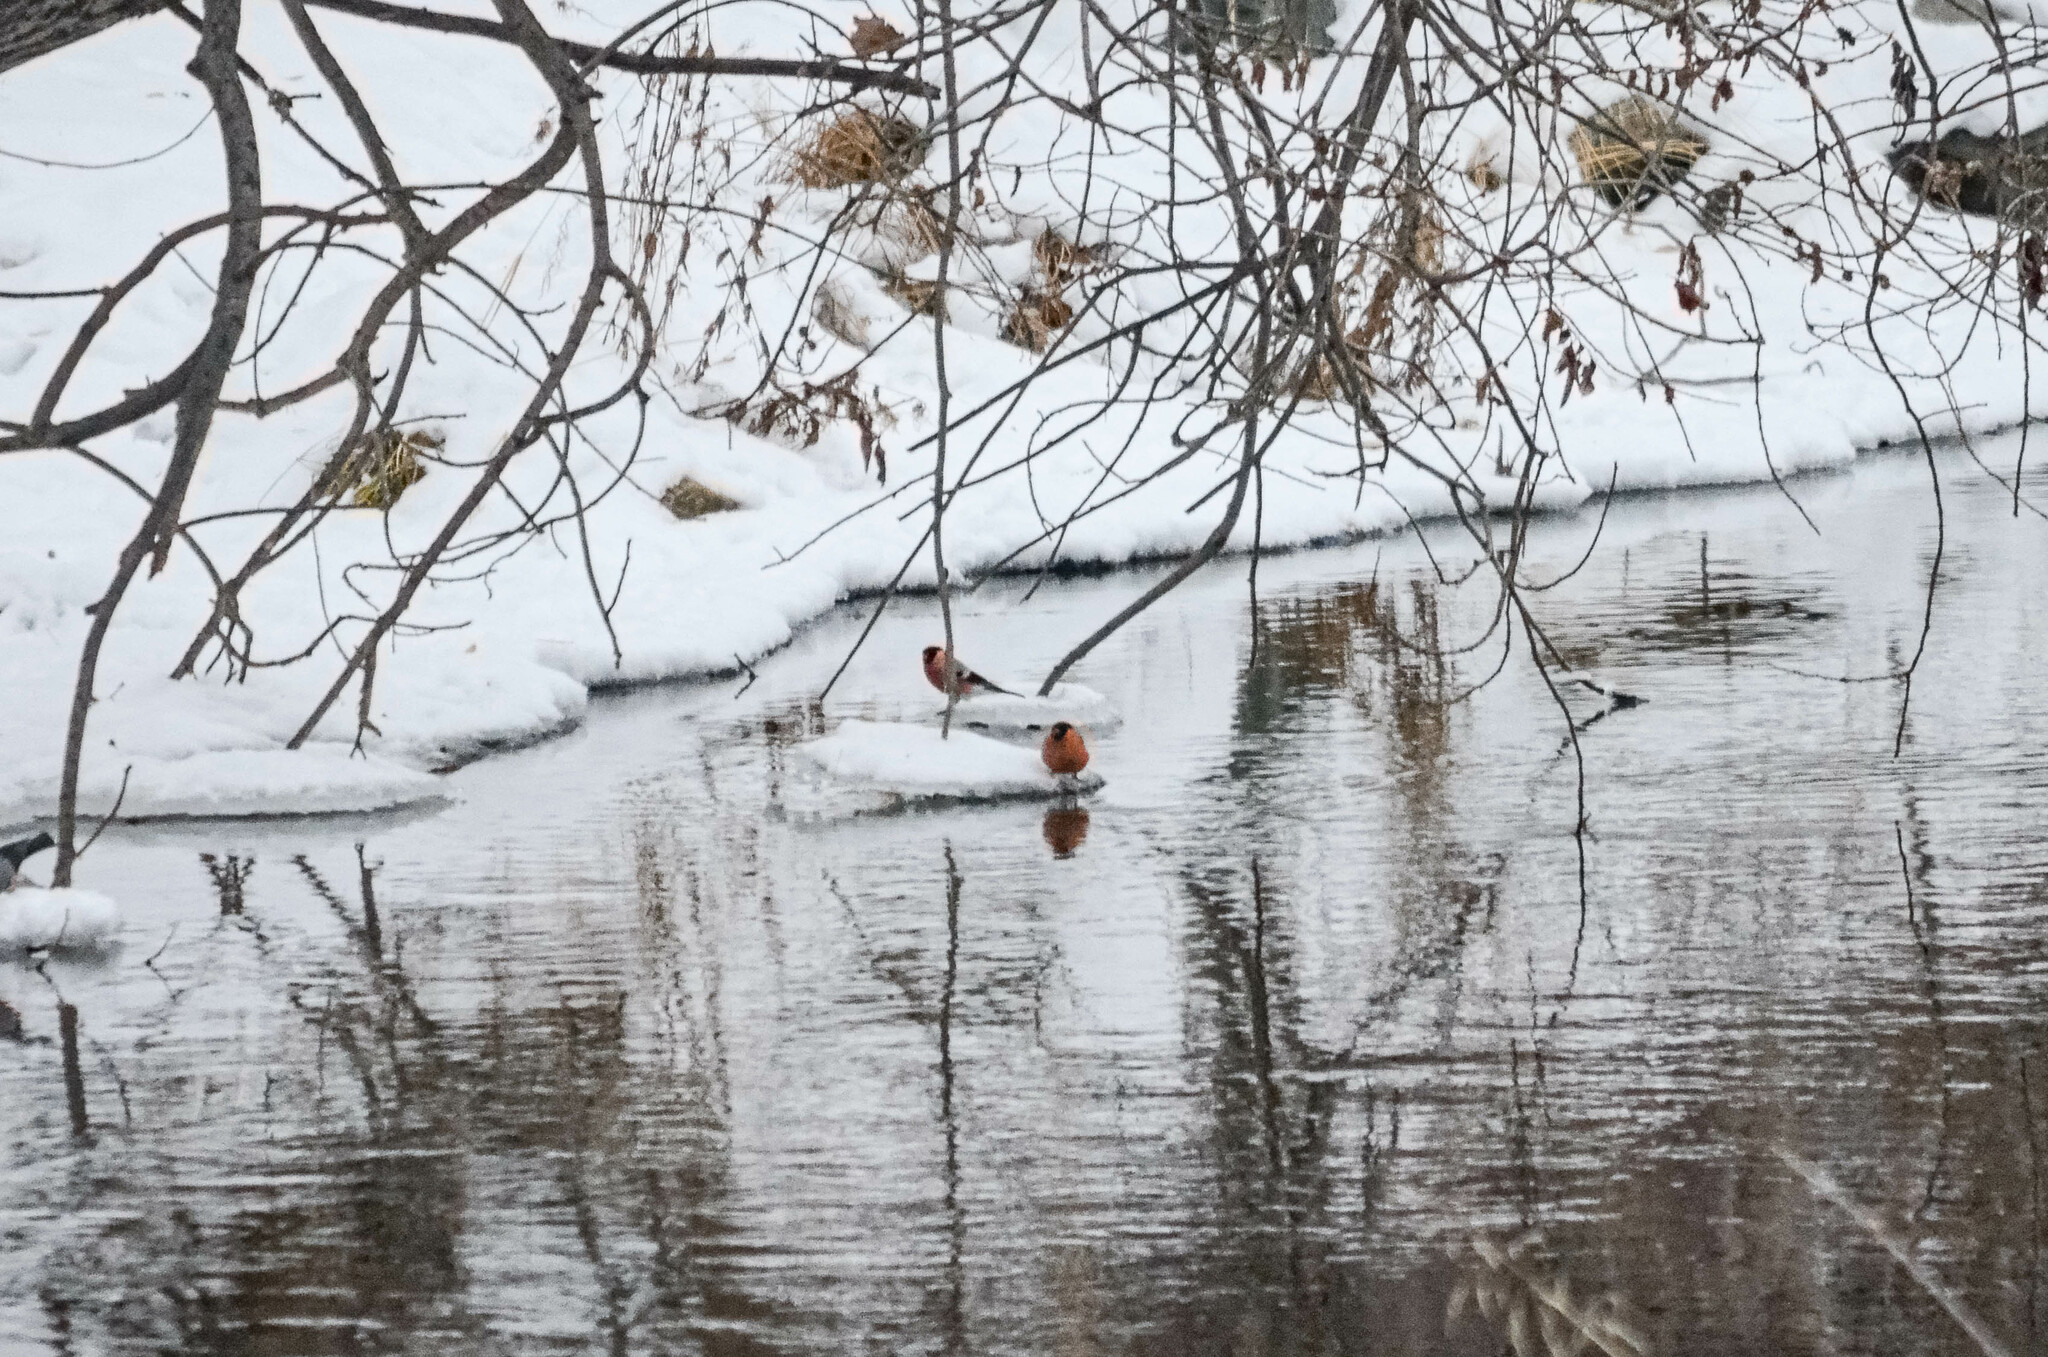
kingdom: Animalia
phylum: Chordata
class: Aves
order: Passeriformes
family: Fringillidae
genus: Pyrrhula
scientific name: Pyrrhula pyrrhula
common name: Eurasian bullfinch
